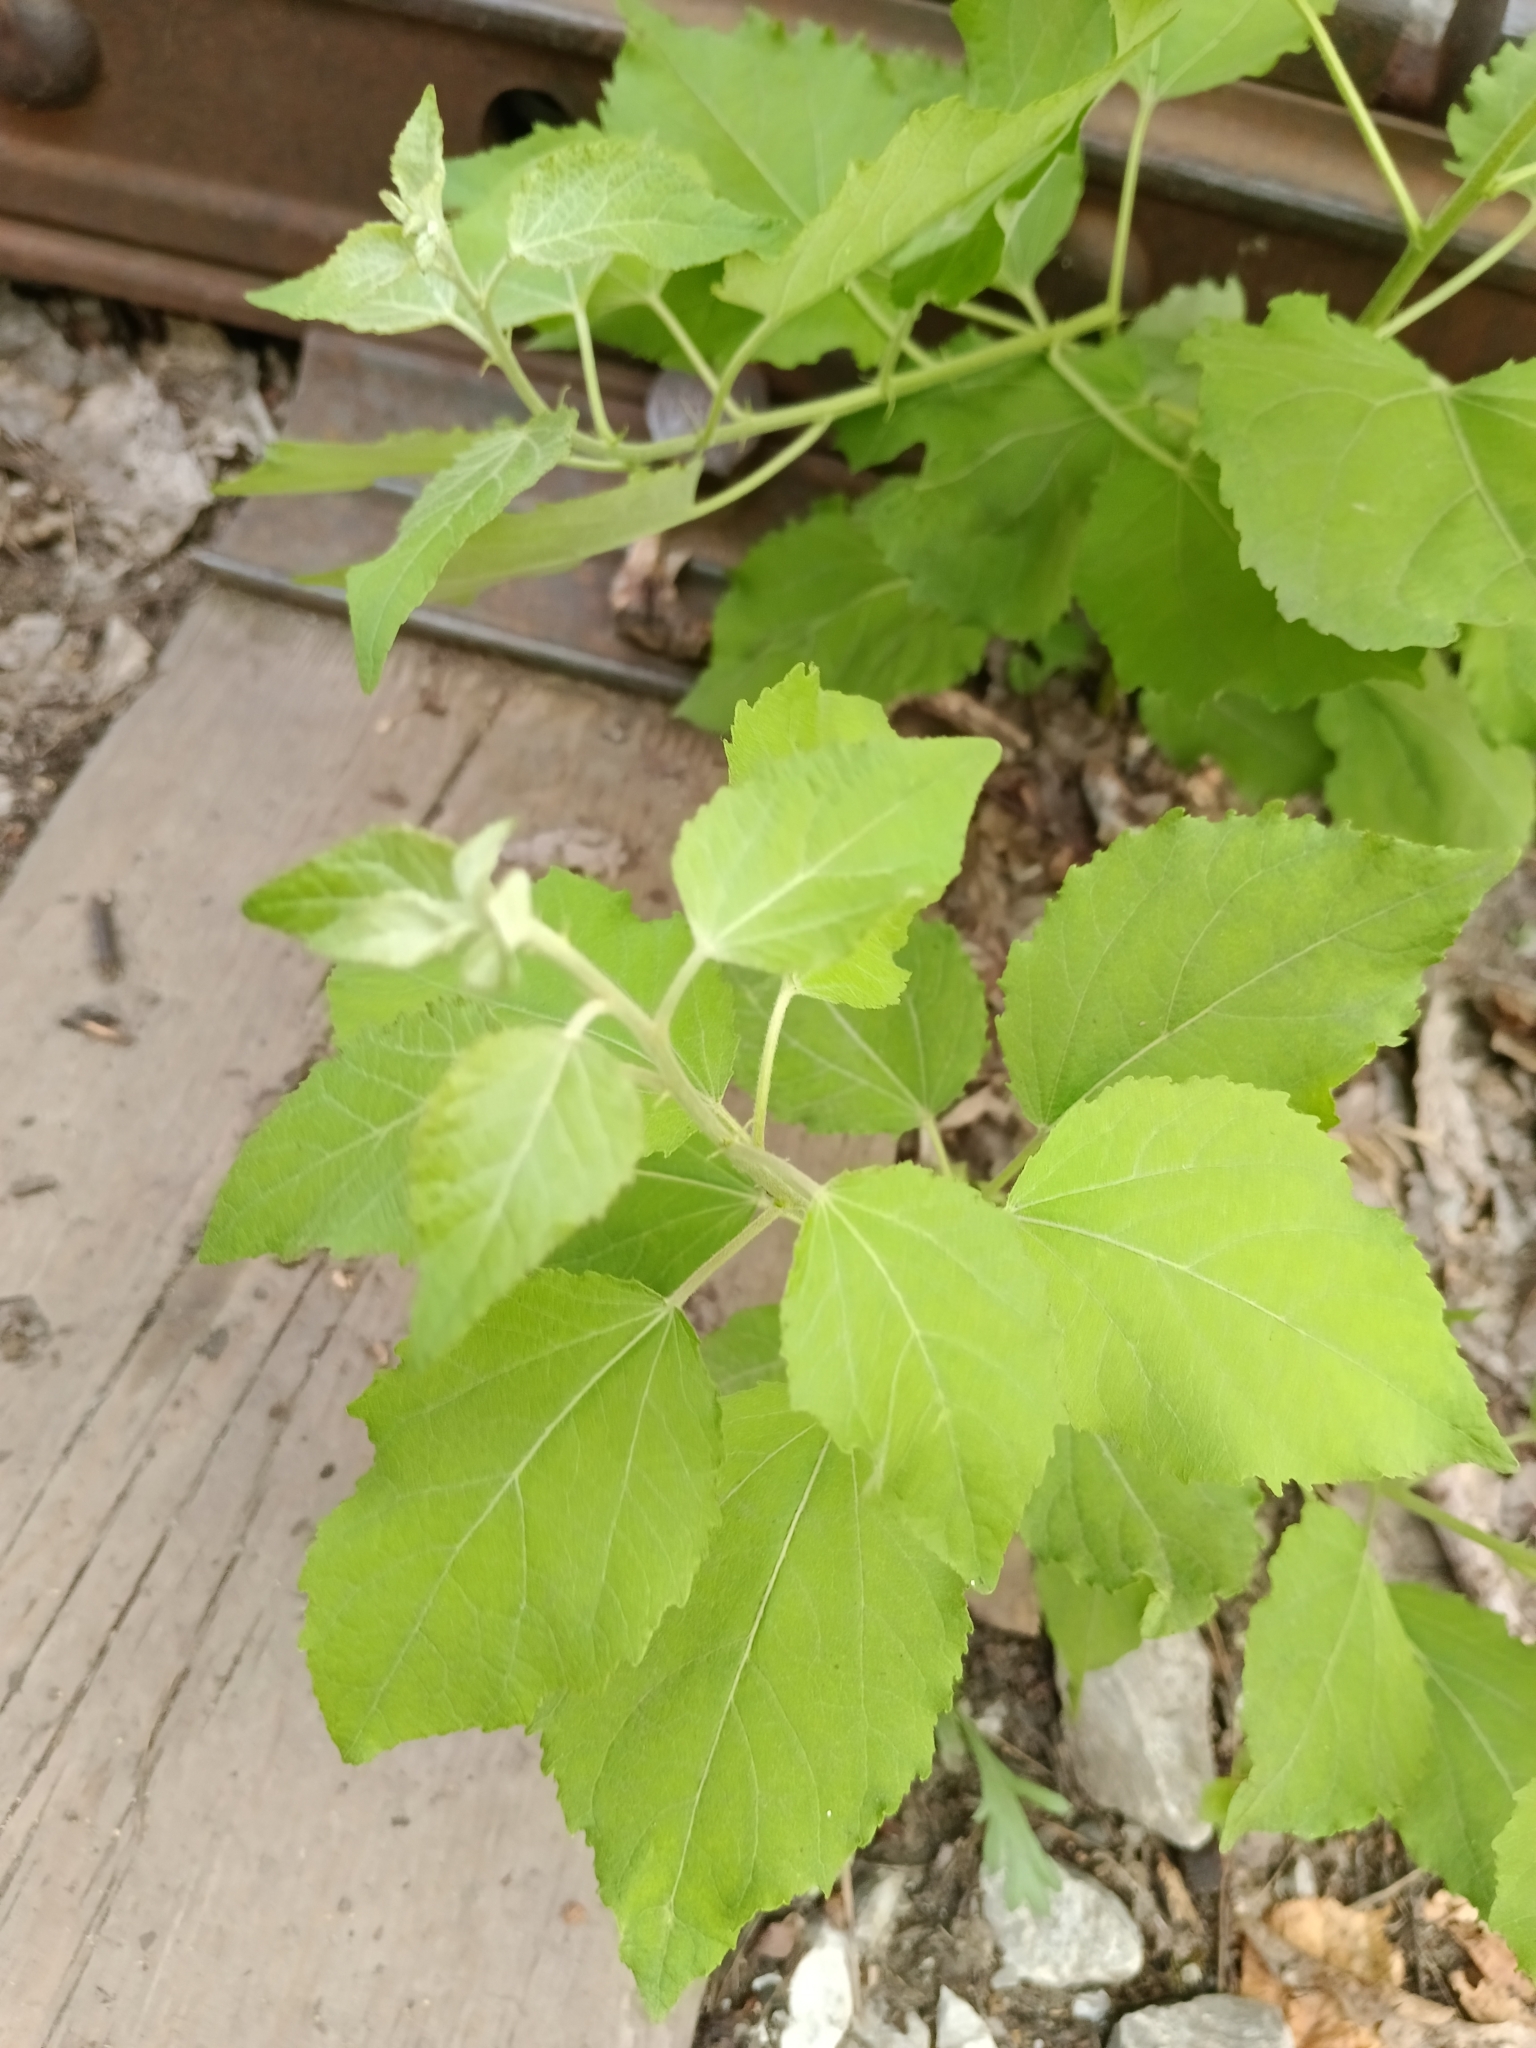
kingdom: Plantae
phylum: Tracheophyta
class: Magnoliopsida
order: Malpighiales
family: Salicaceae
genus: Populus
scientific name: Populus tremula
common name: European aspen
